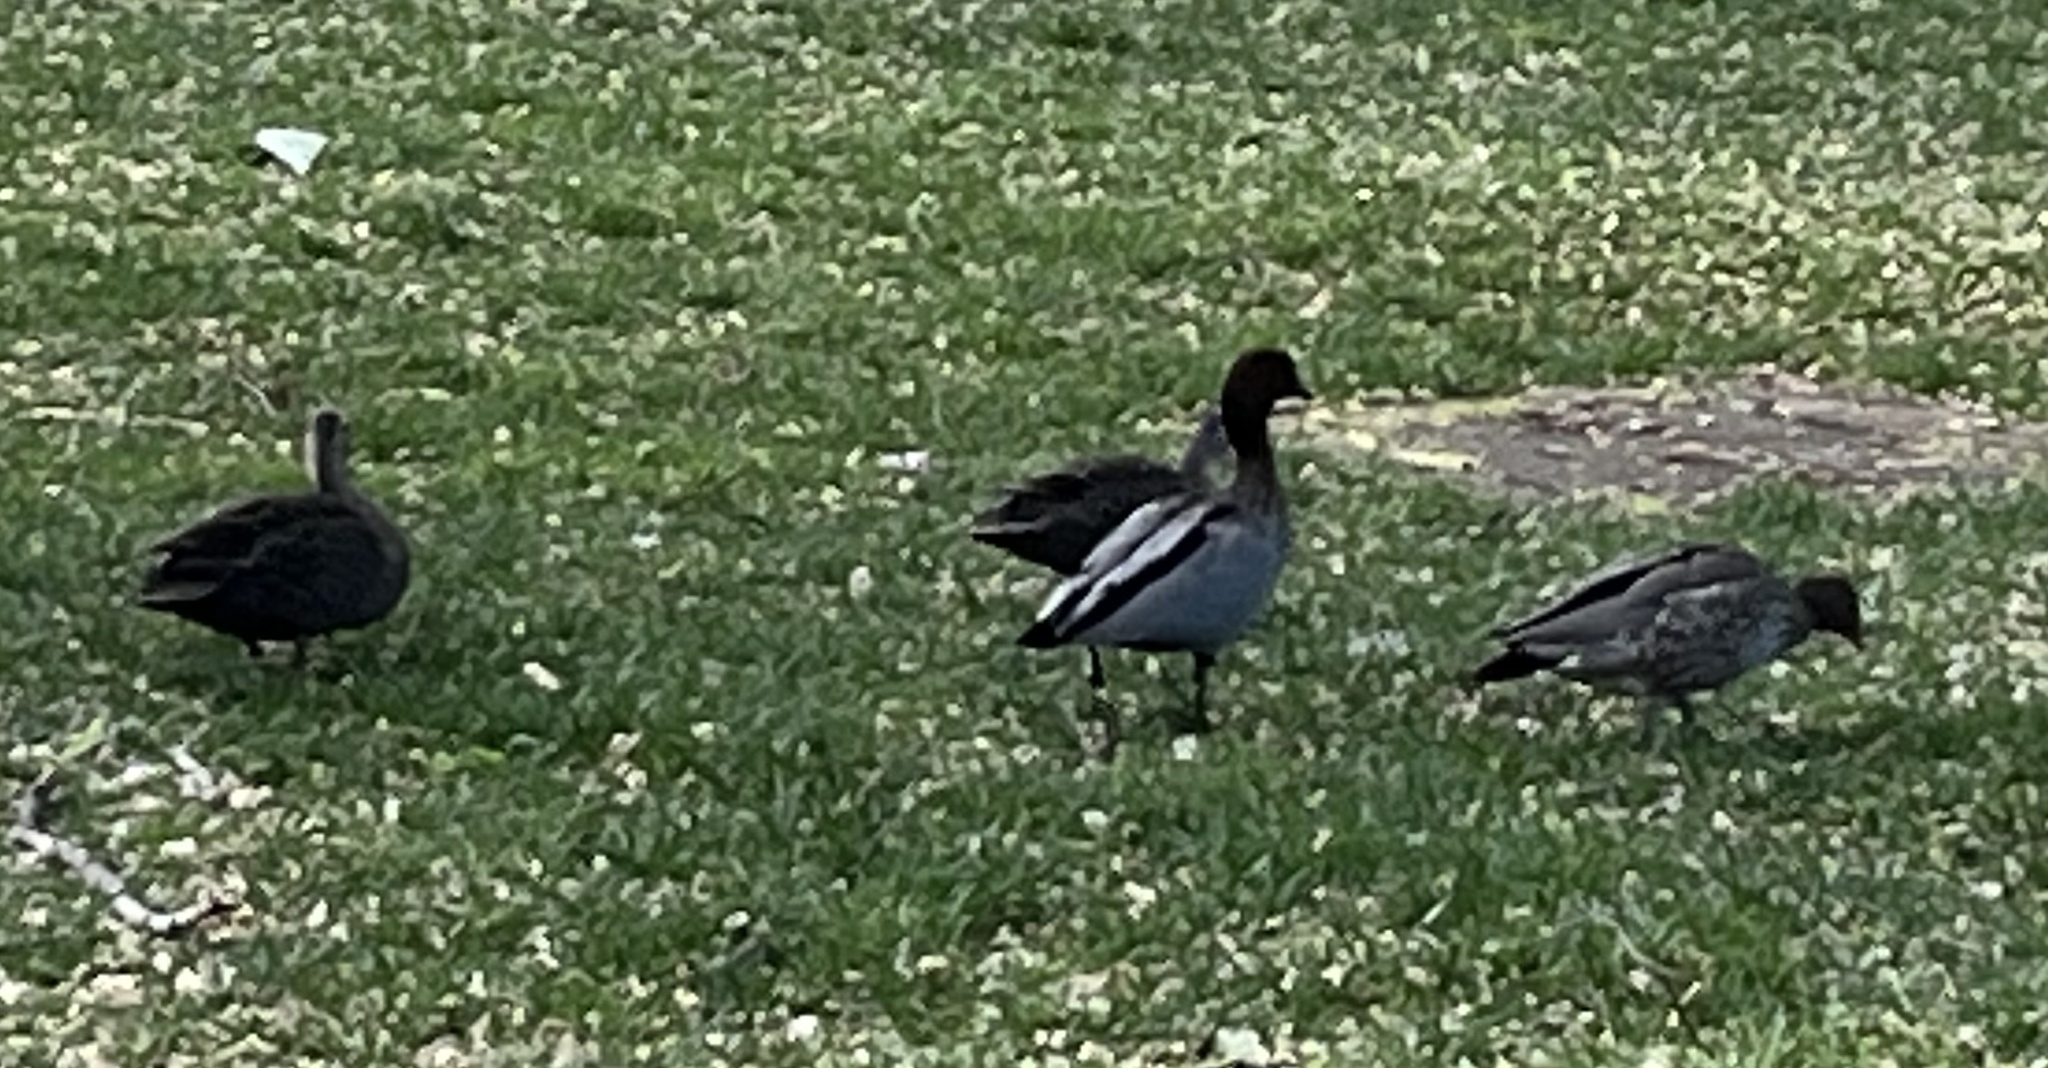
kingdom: Animalia
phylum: Chordata
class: Aves
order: Anseriformes
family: Anatidae
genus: Chenonetta
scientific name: Chenonetta jubata
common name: Maned duck
